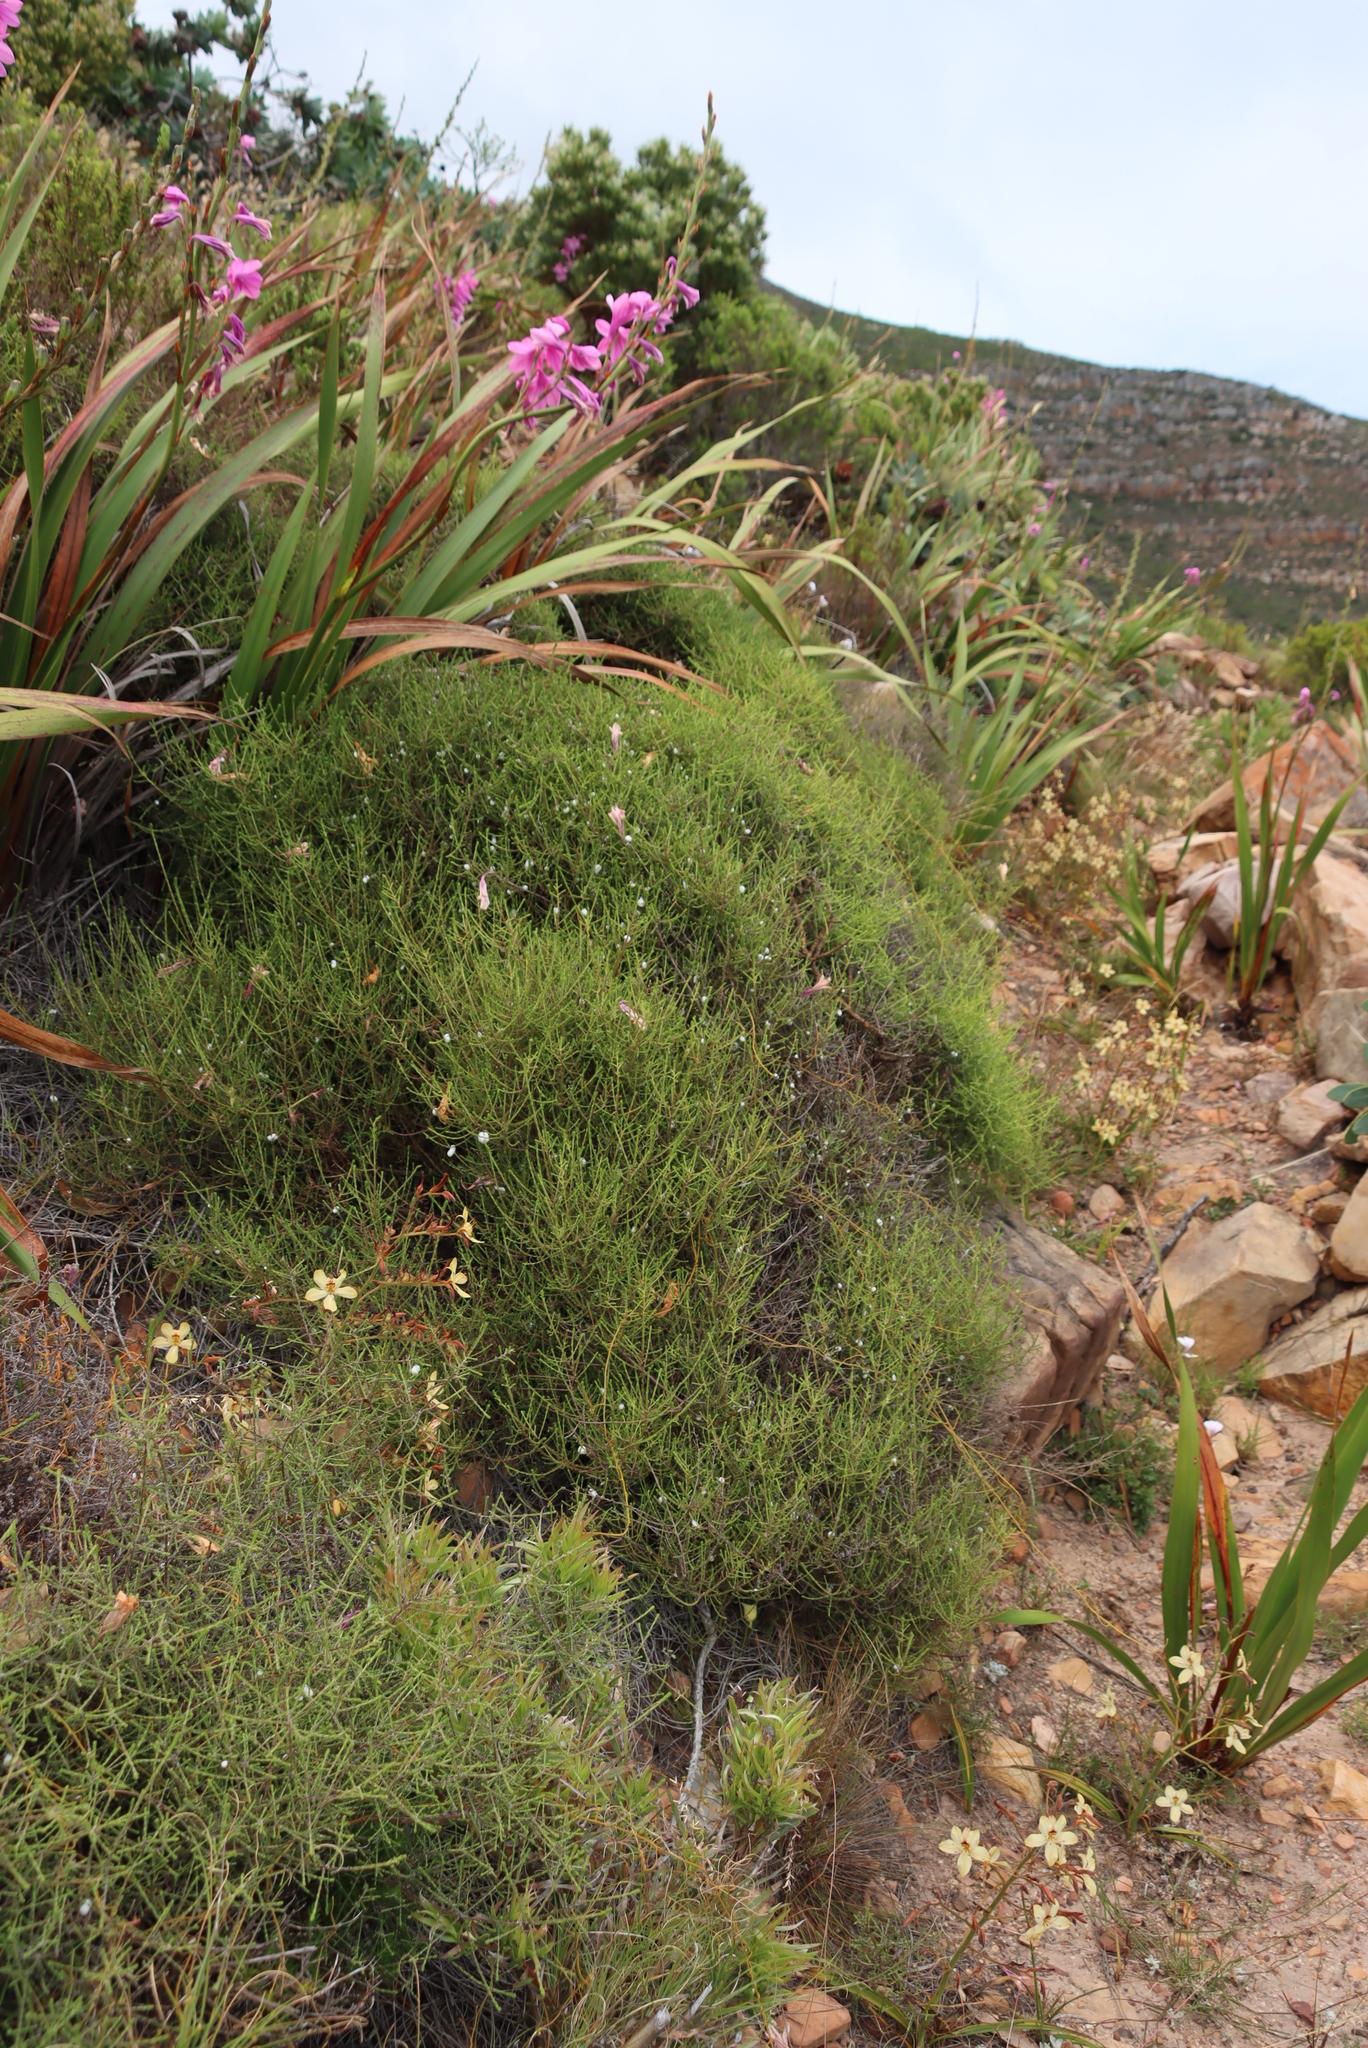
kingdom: Plantae
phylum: Tracheophyta
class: Magnoliopsida
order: Asterales
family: Asteraceae
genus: Myrovernix
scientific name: Myrovernix scaber
